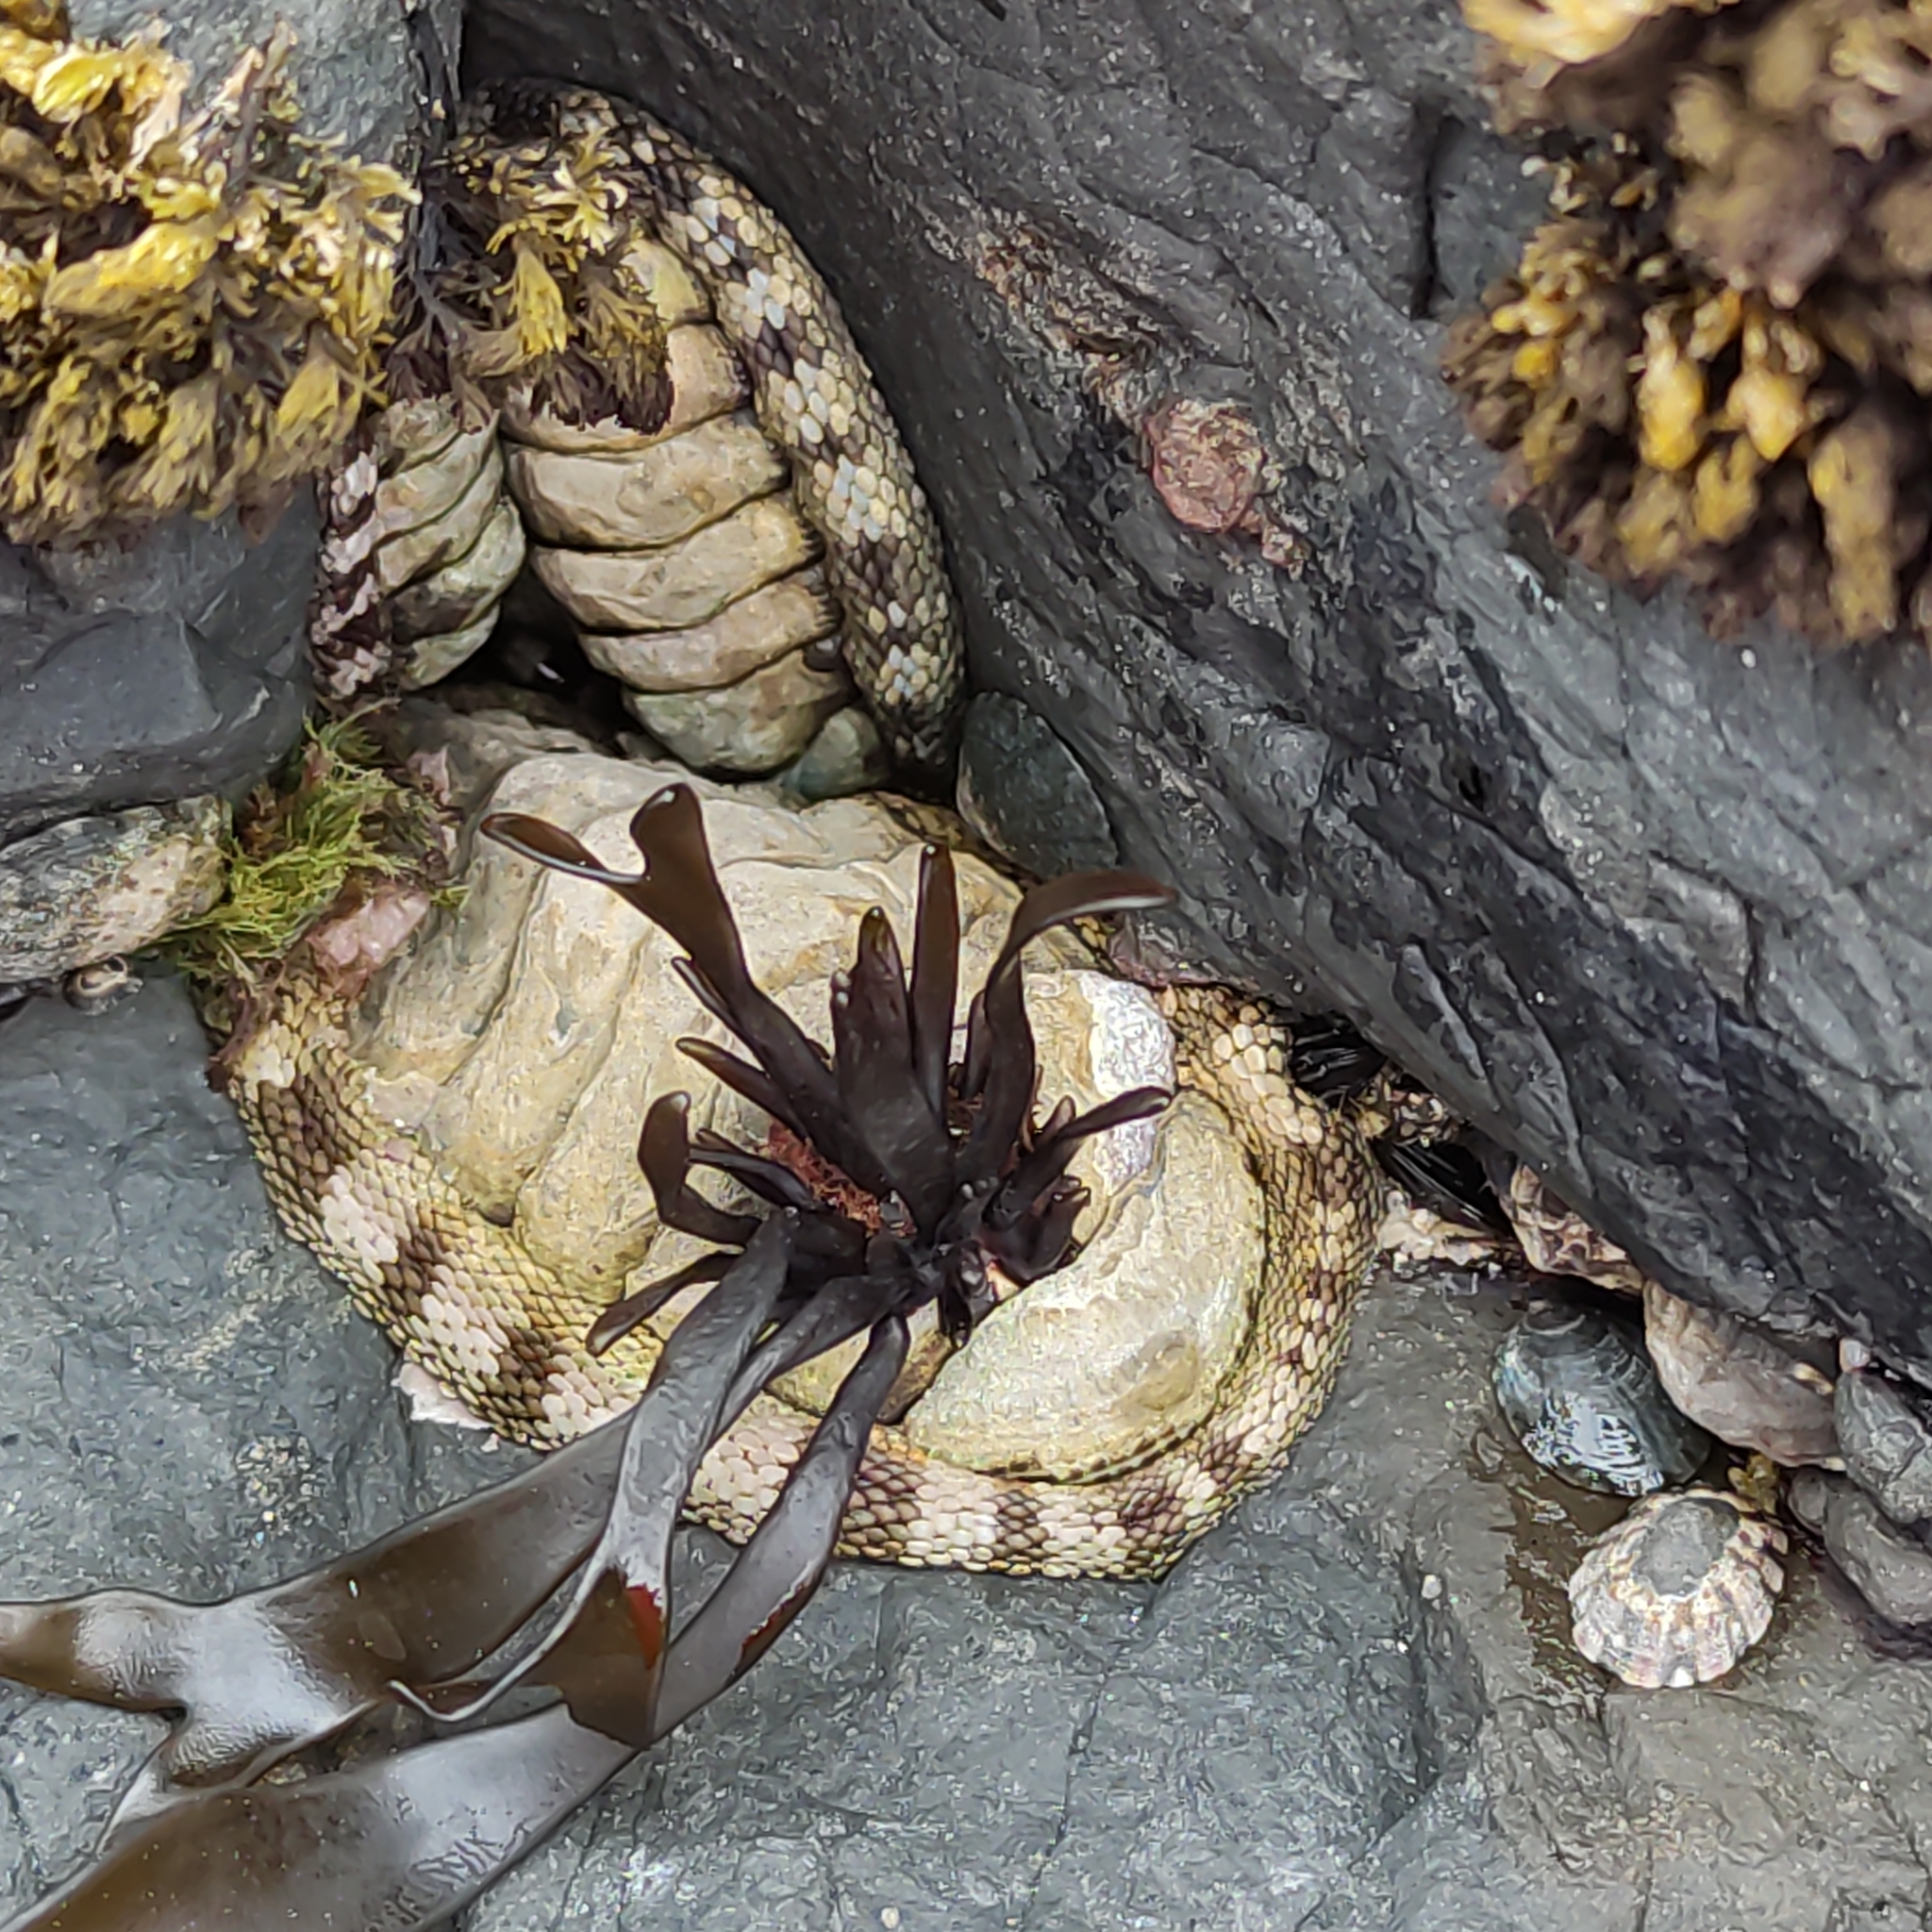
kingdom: Animalia
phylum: Mollusca
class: Polyplacophora
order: Chitonida
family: Chitonidae
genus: Sypharochiton
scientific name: Sypharochiton pelliserpentis
